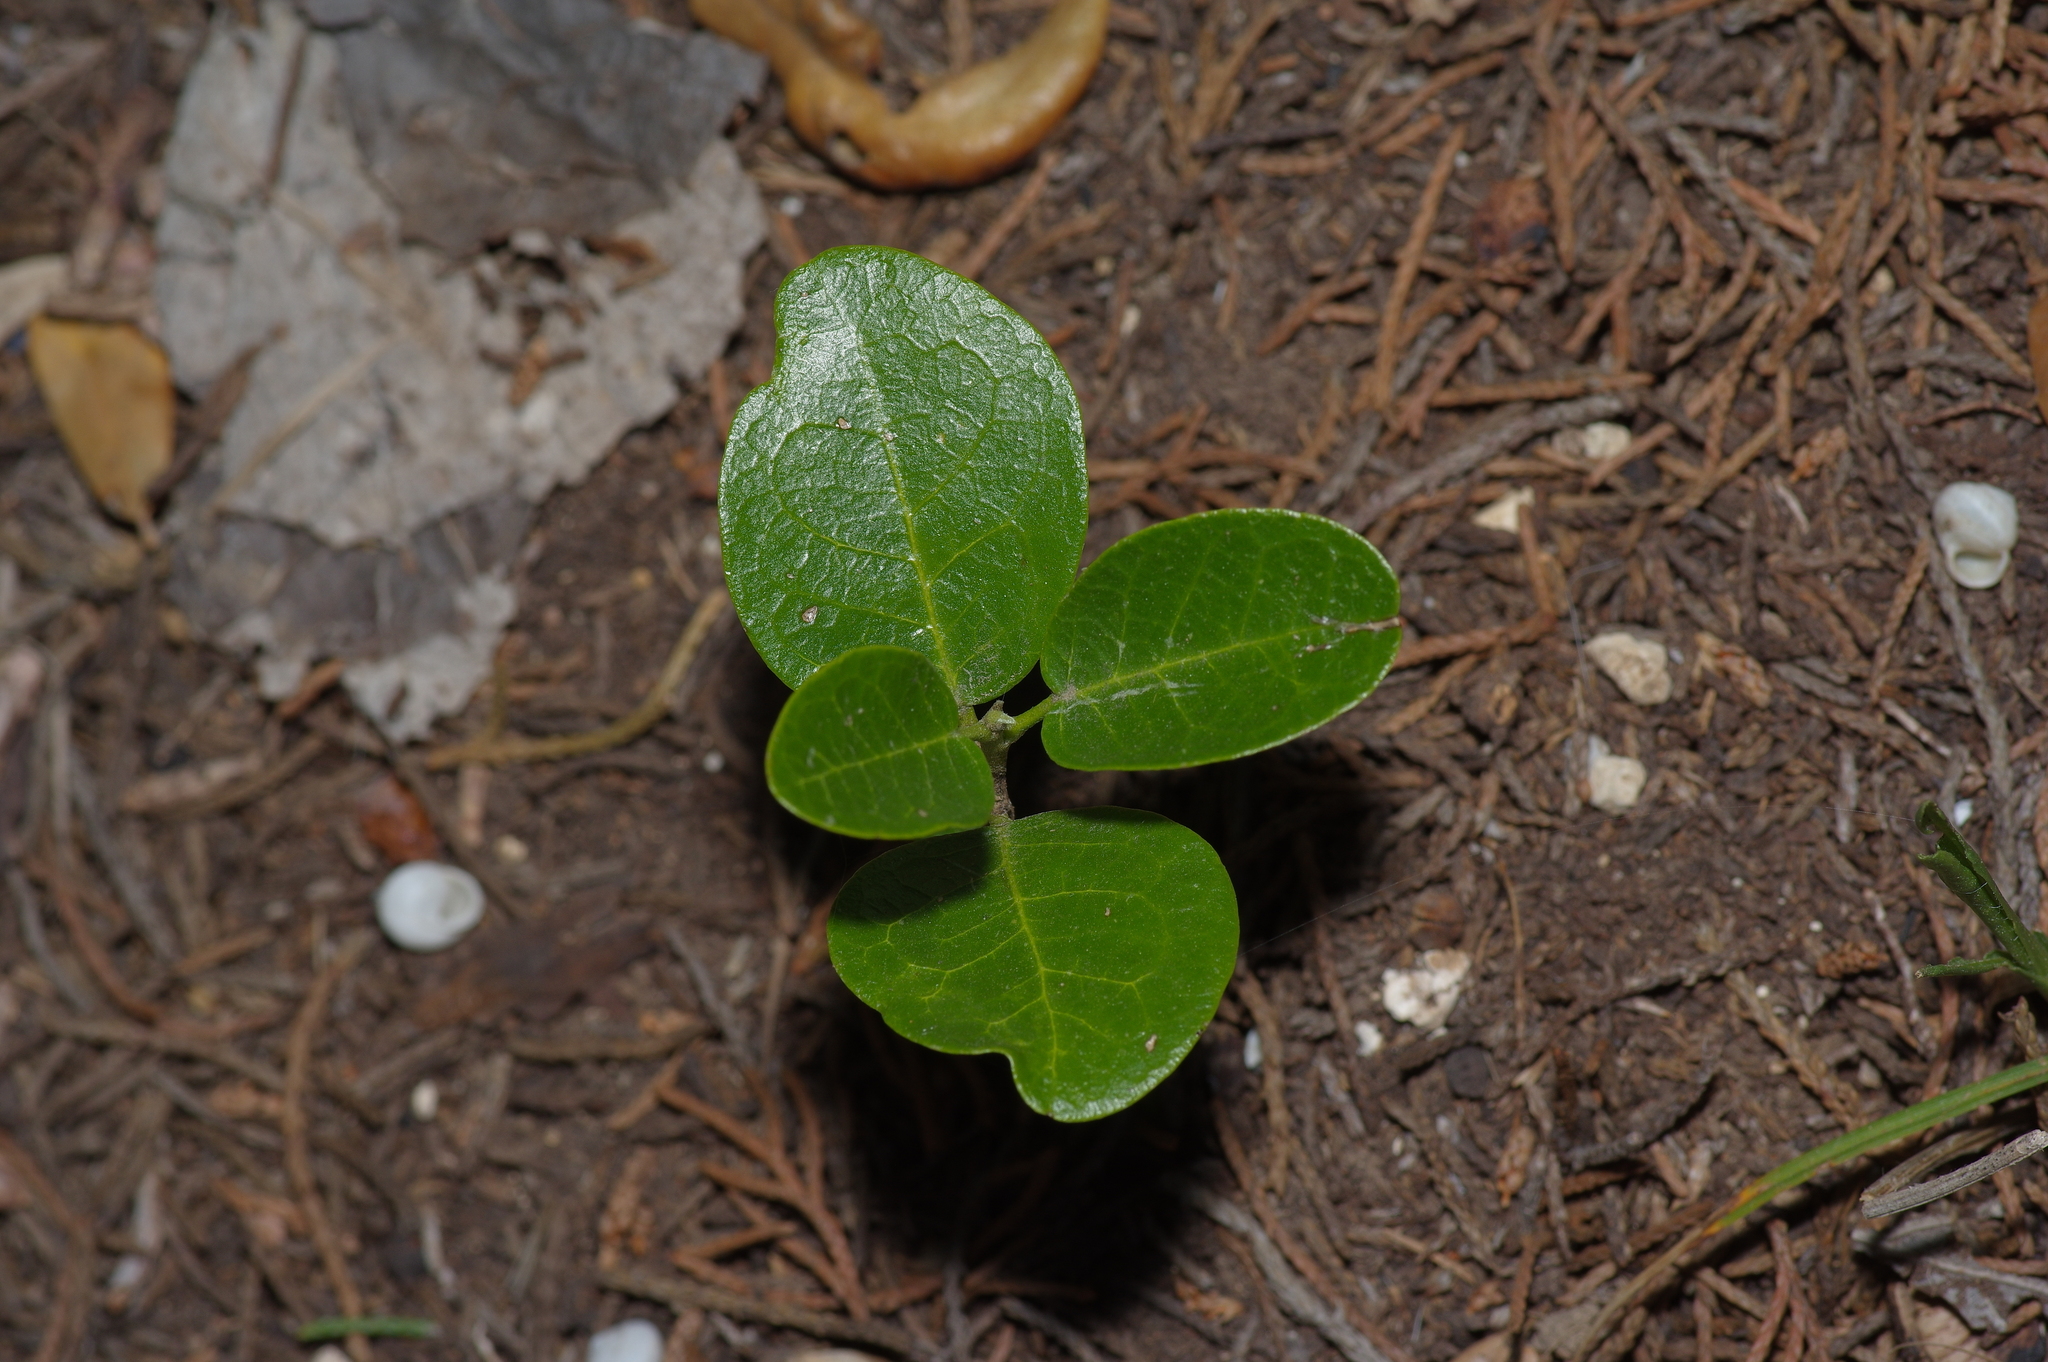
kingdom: Plantae
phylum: Tracheophyta
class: Magnoliopsida
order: Fabales
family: Fabaceae
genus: Dermatophyllum
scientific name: Dermatophyllum secundiflorum
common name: Texas-mountain-laurel
